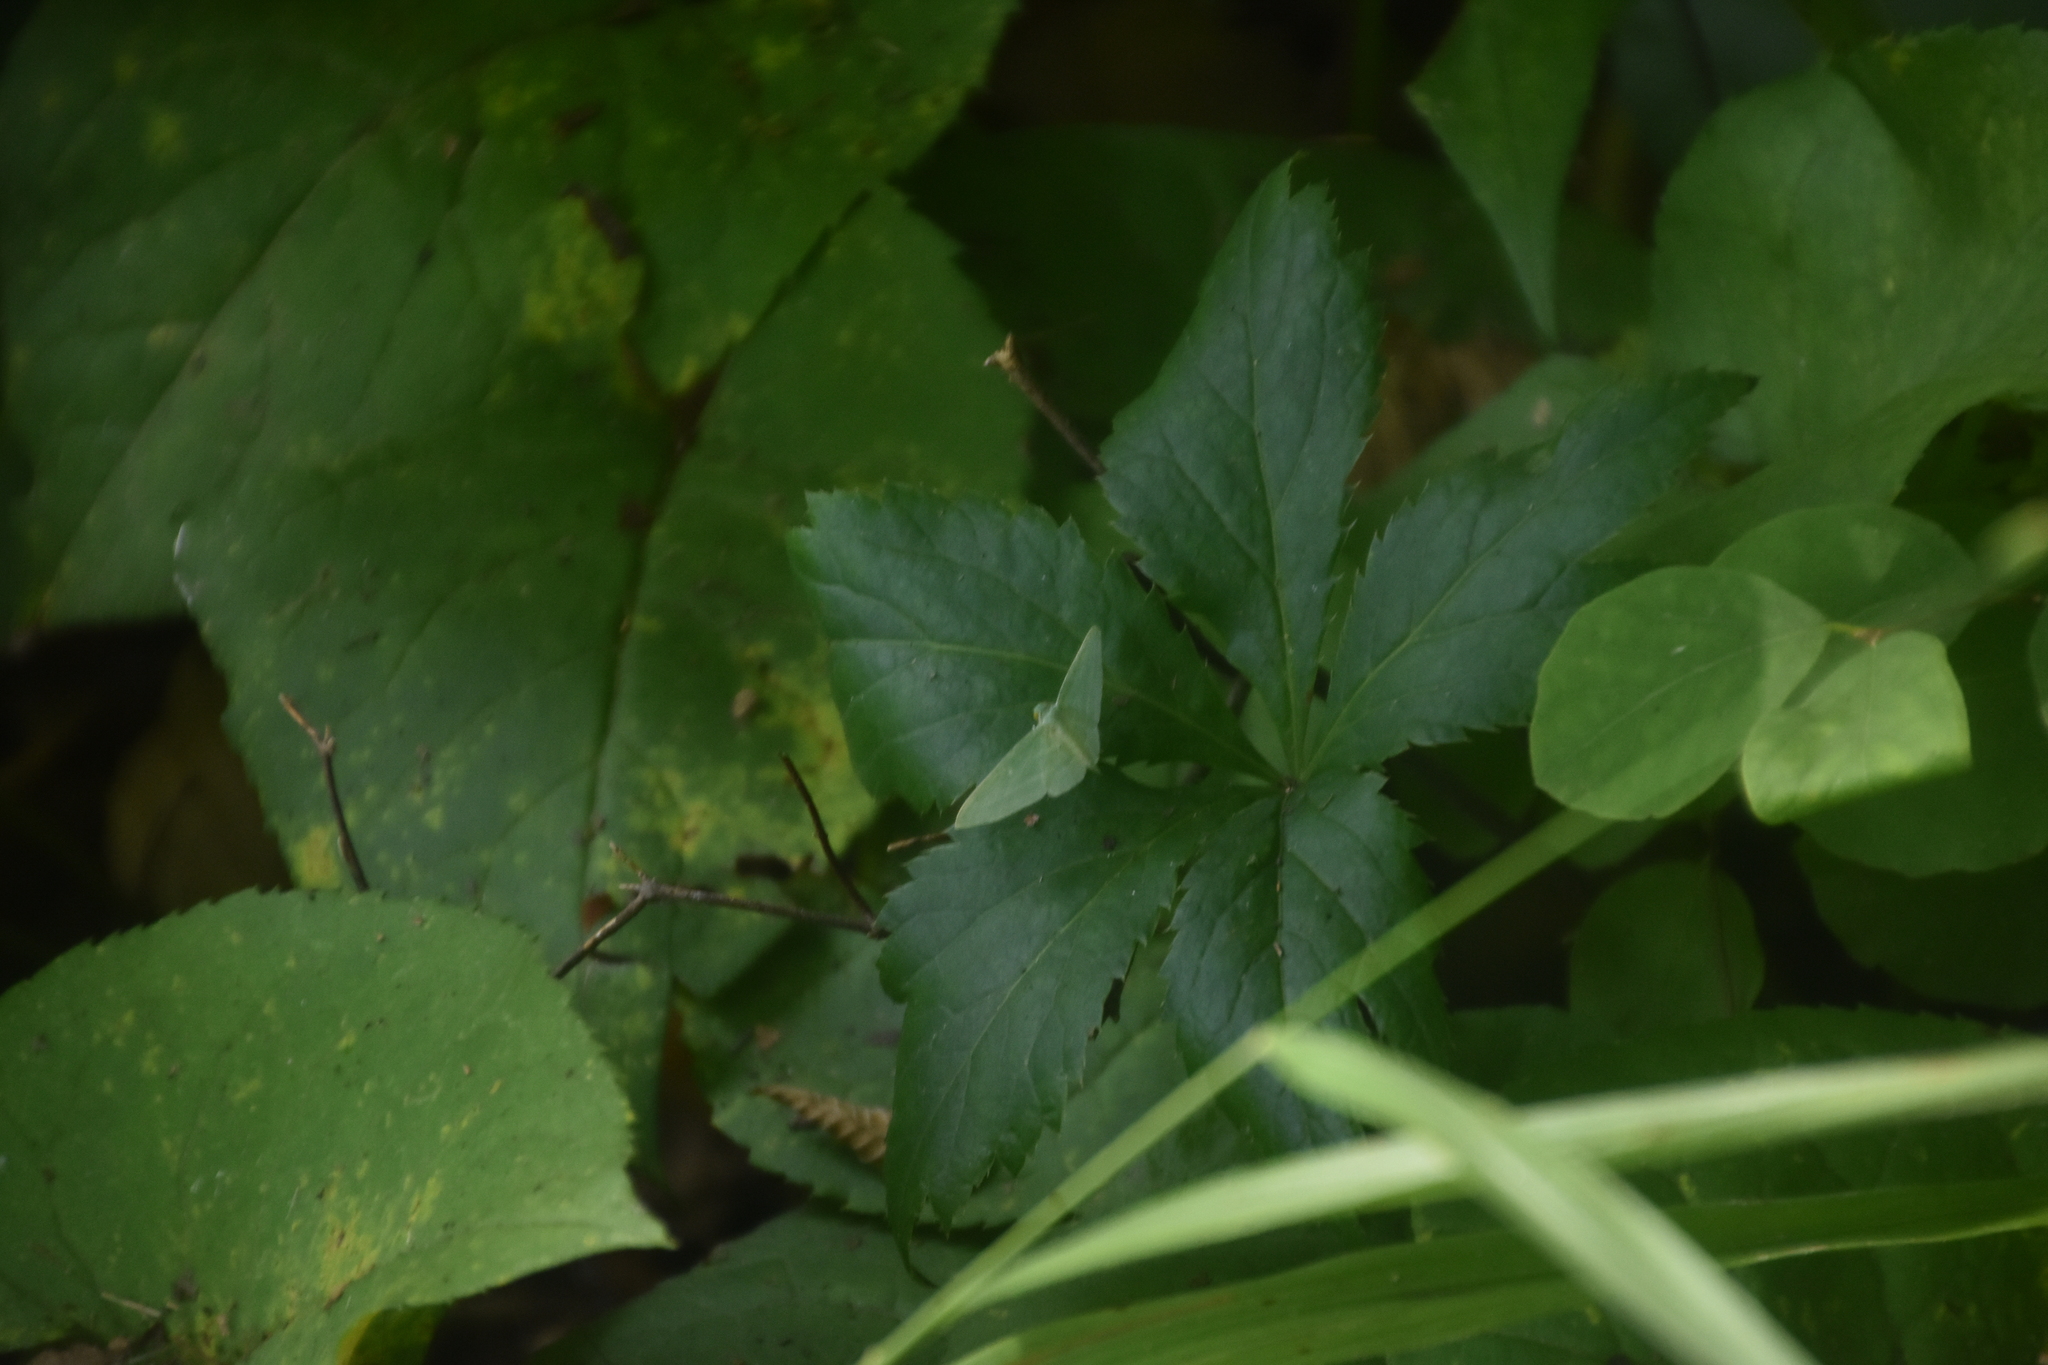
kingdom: Animalia
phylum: Arthropoda
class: Insecta
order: Lepidoptera
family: Geometridae
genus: Dyspteris
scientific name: Dyspteris abortivaria
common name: Bad-wing
